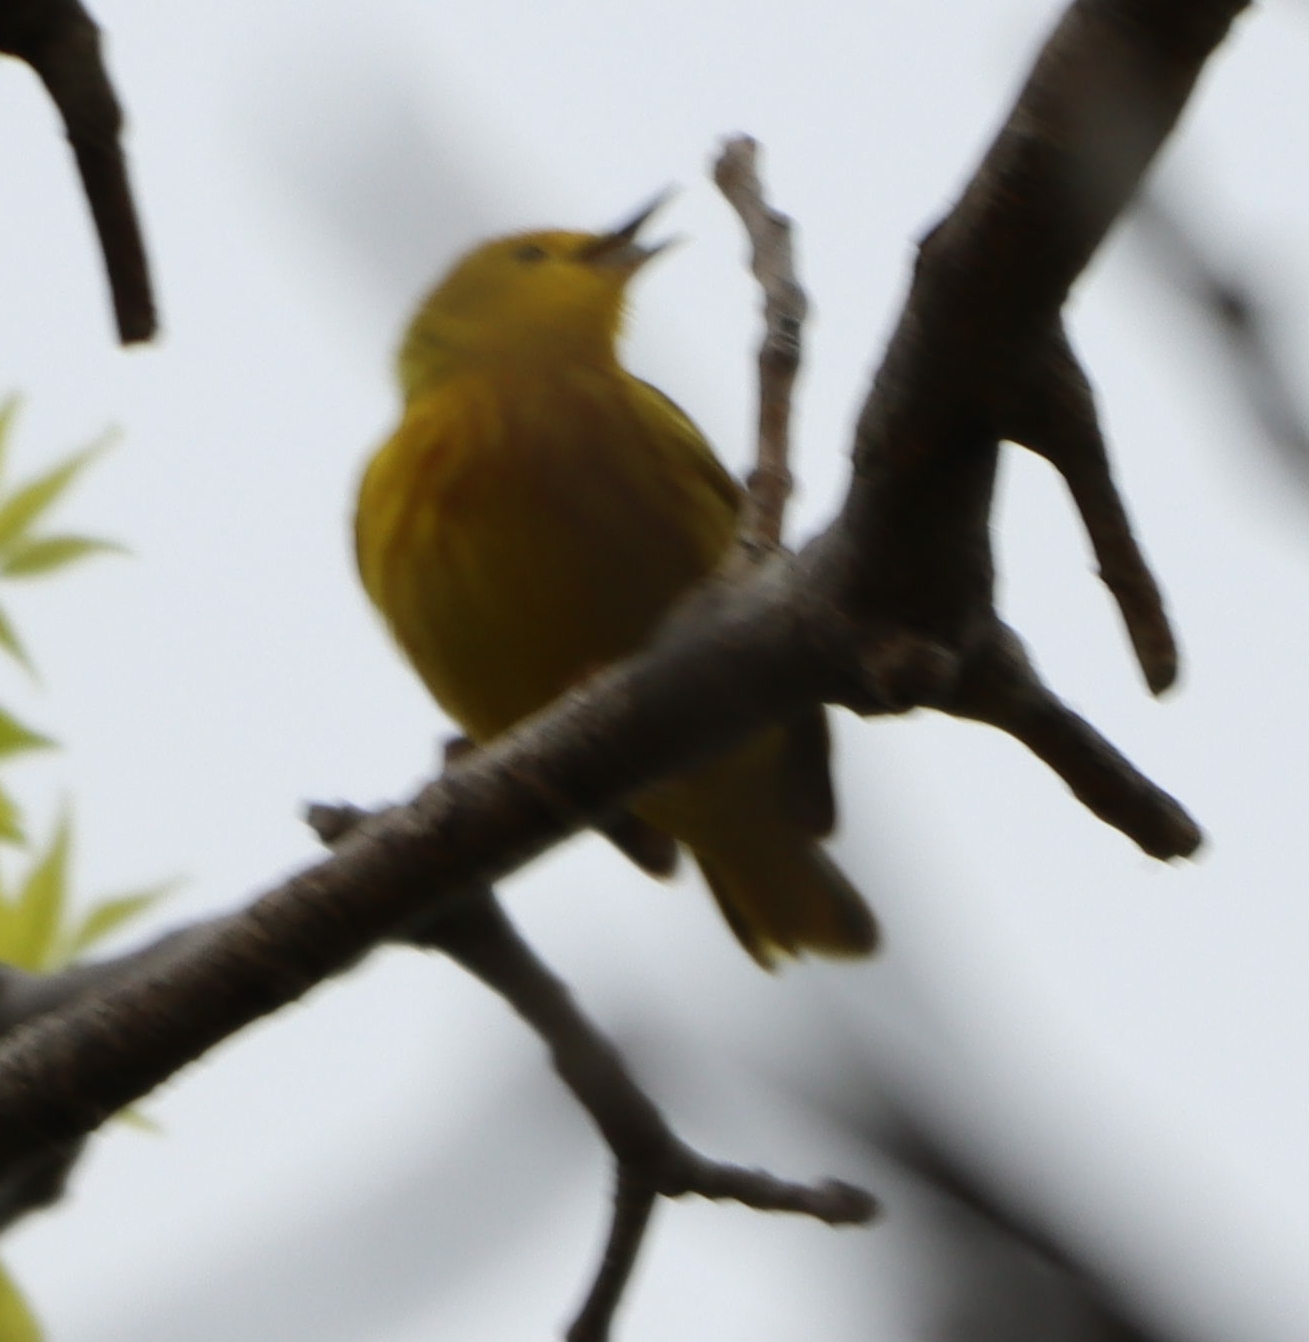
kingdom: Animalia
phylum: Chordata
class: Aves
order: Passeriformes
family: Parulidae
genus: Setophaga
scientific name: Setophaga petechia
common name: Yellow warbler
